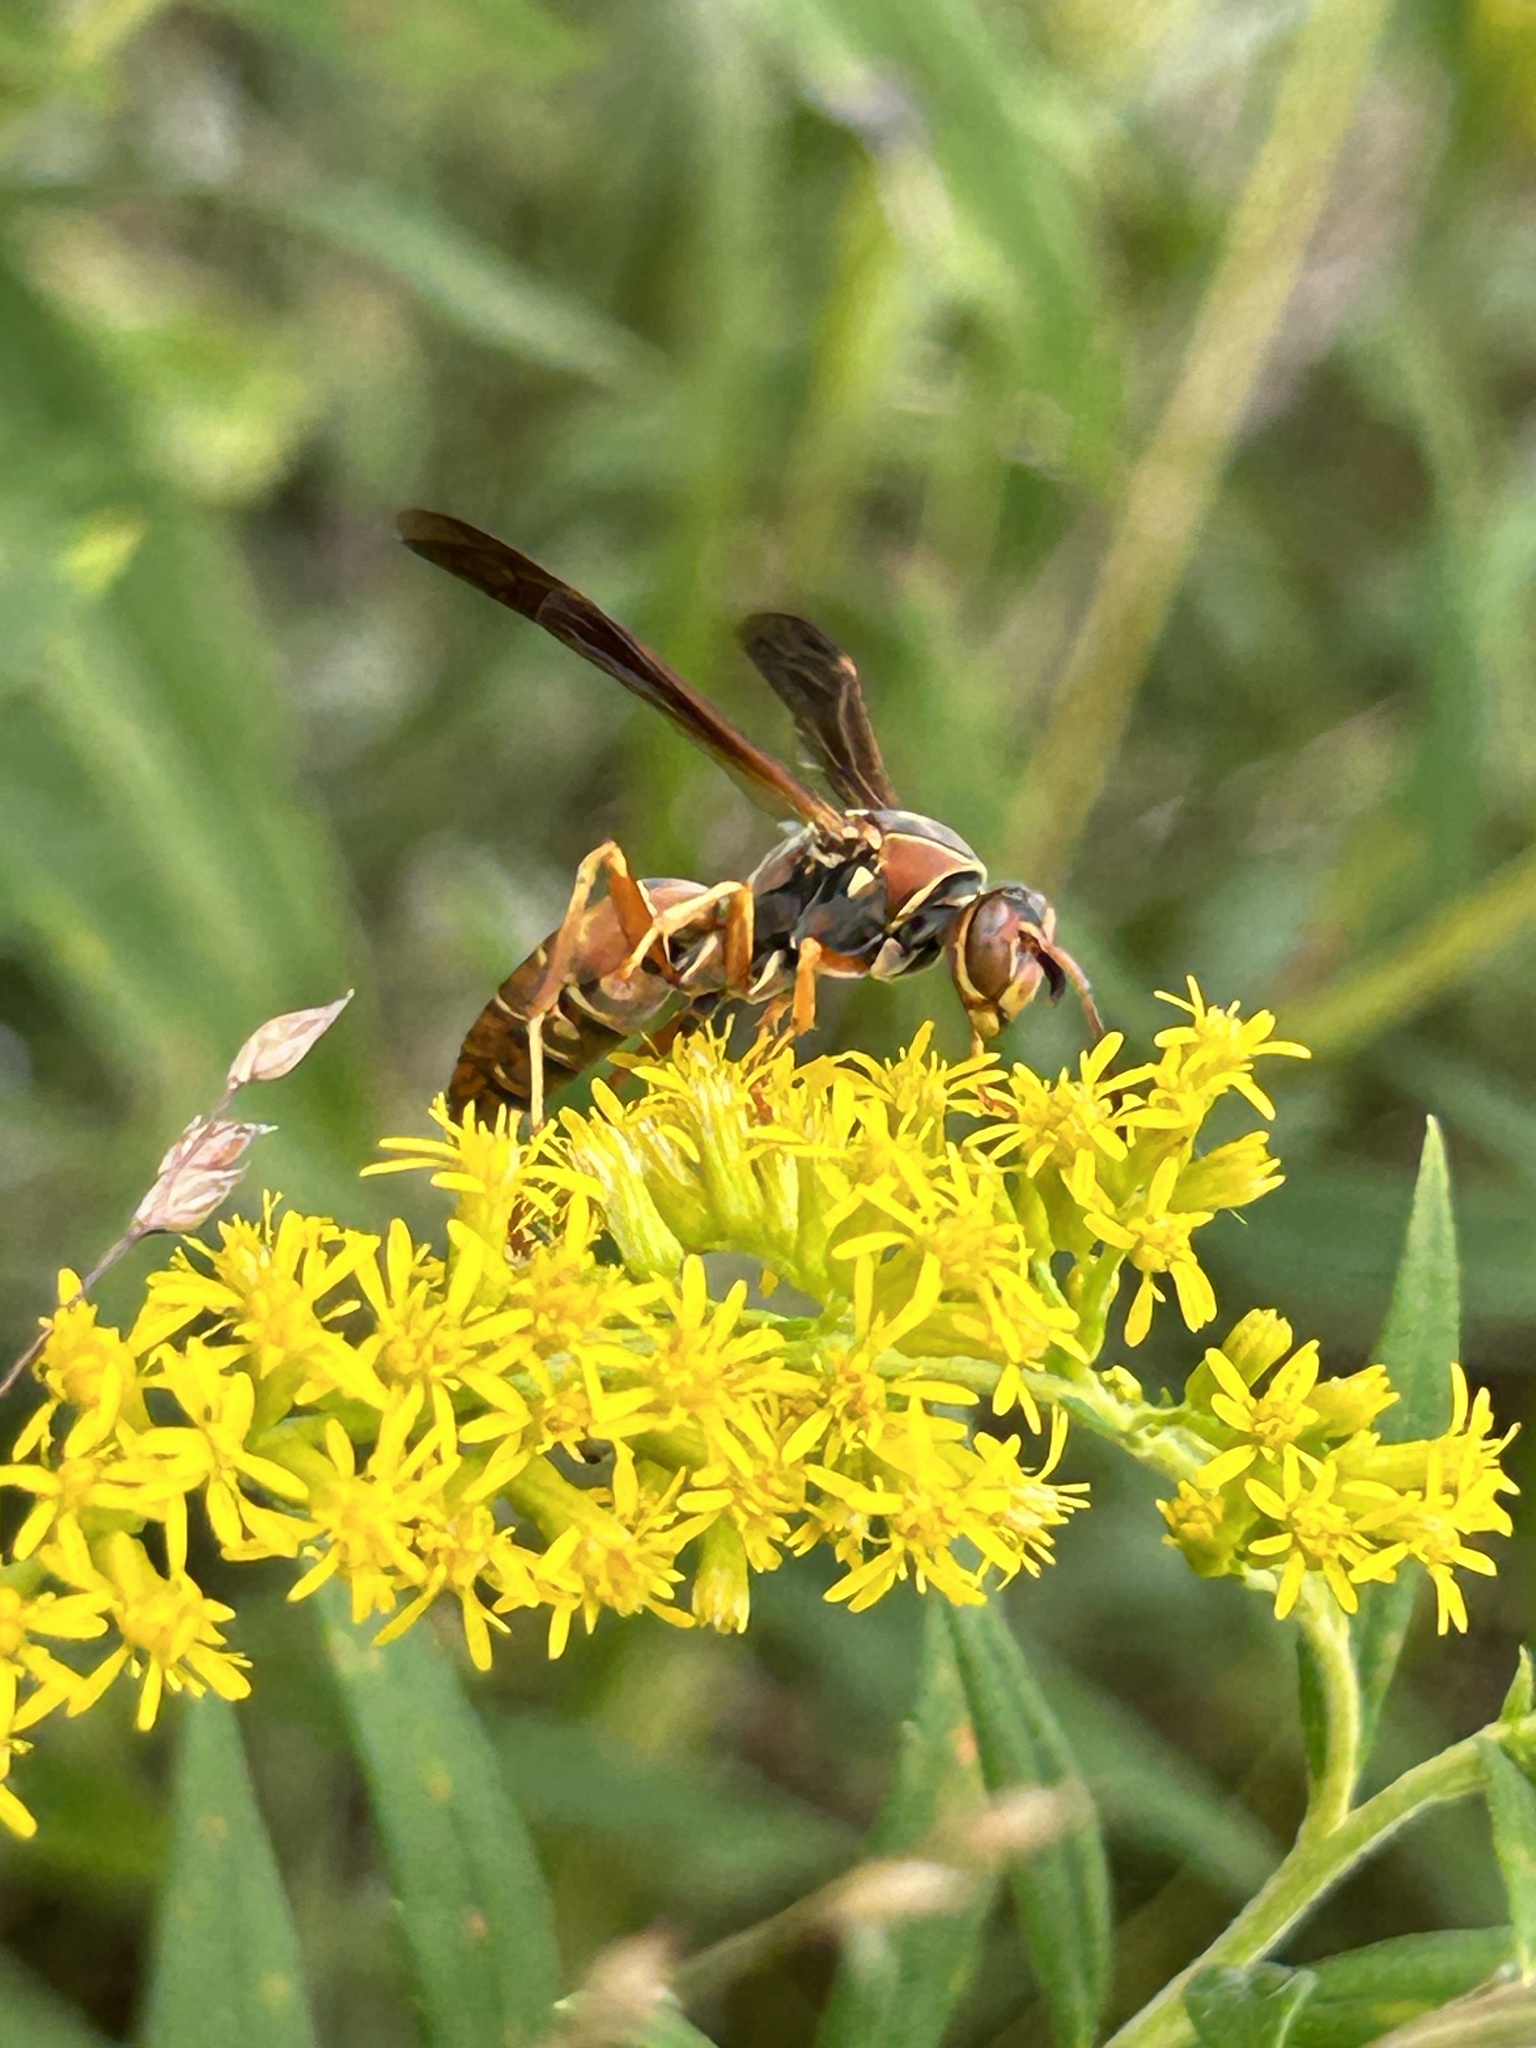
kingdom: Animalia
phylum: Arthropoda
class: Insecta
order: Hymenoptera
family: Eumenidae
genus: Polistes
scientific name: Polistes fuscatus
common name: Dark paper wasp
